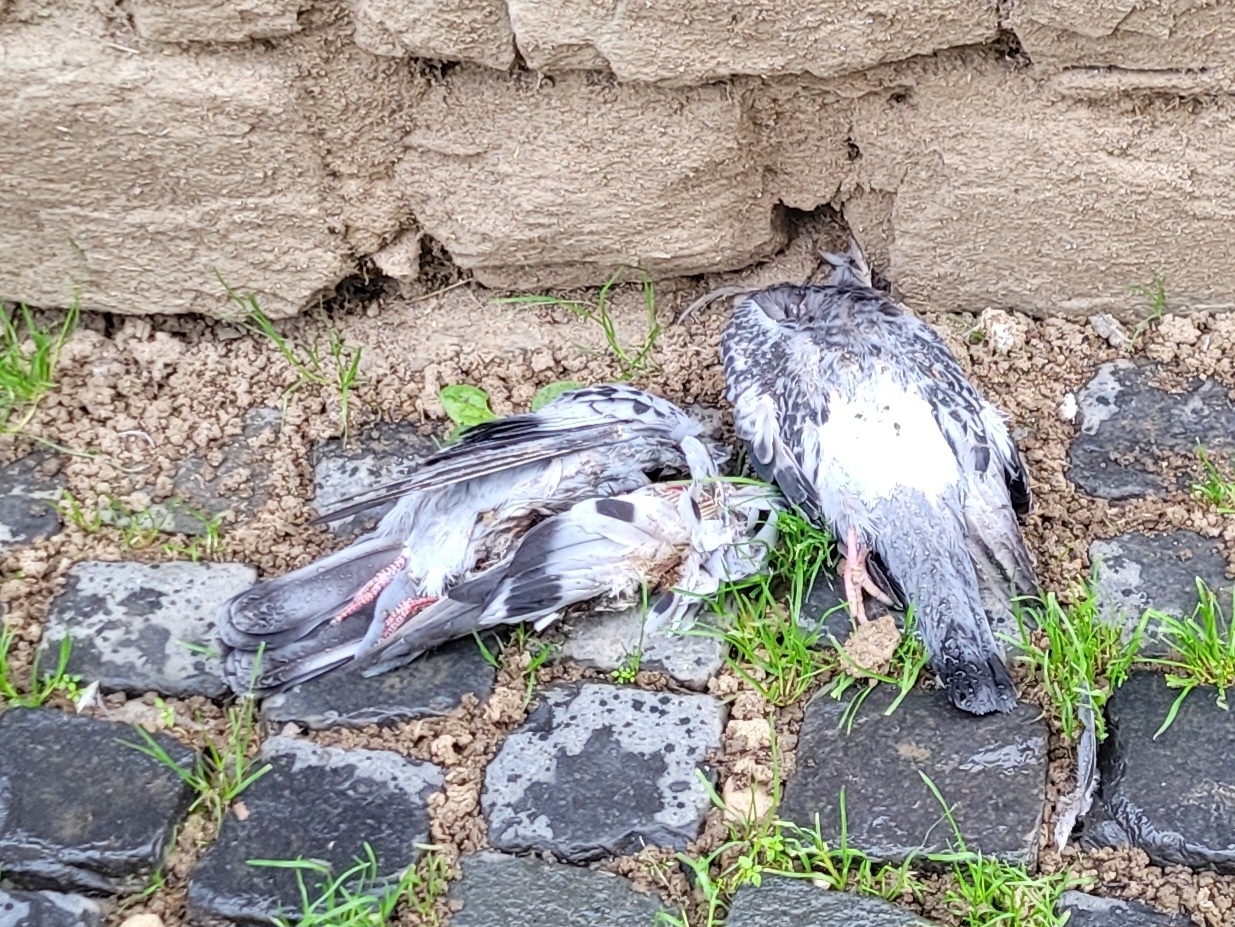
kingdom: Animalia
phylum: Chordata
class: Aves
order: Columbiformes
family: Columbidae
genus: Columba
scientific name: Columba livia
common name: Rock pigeon
